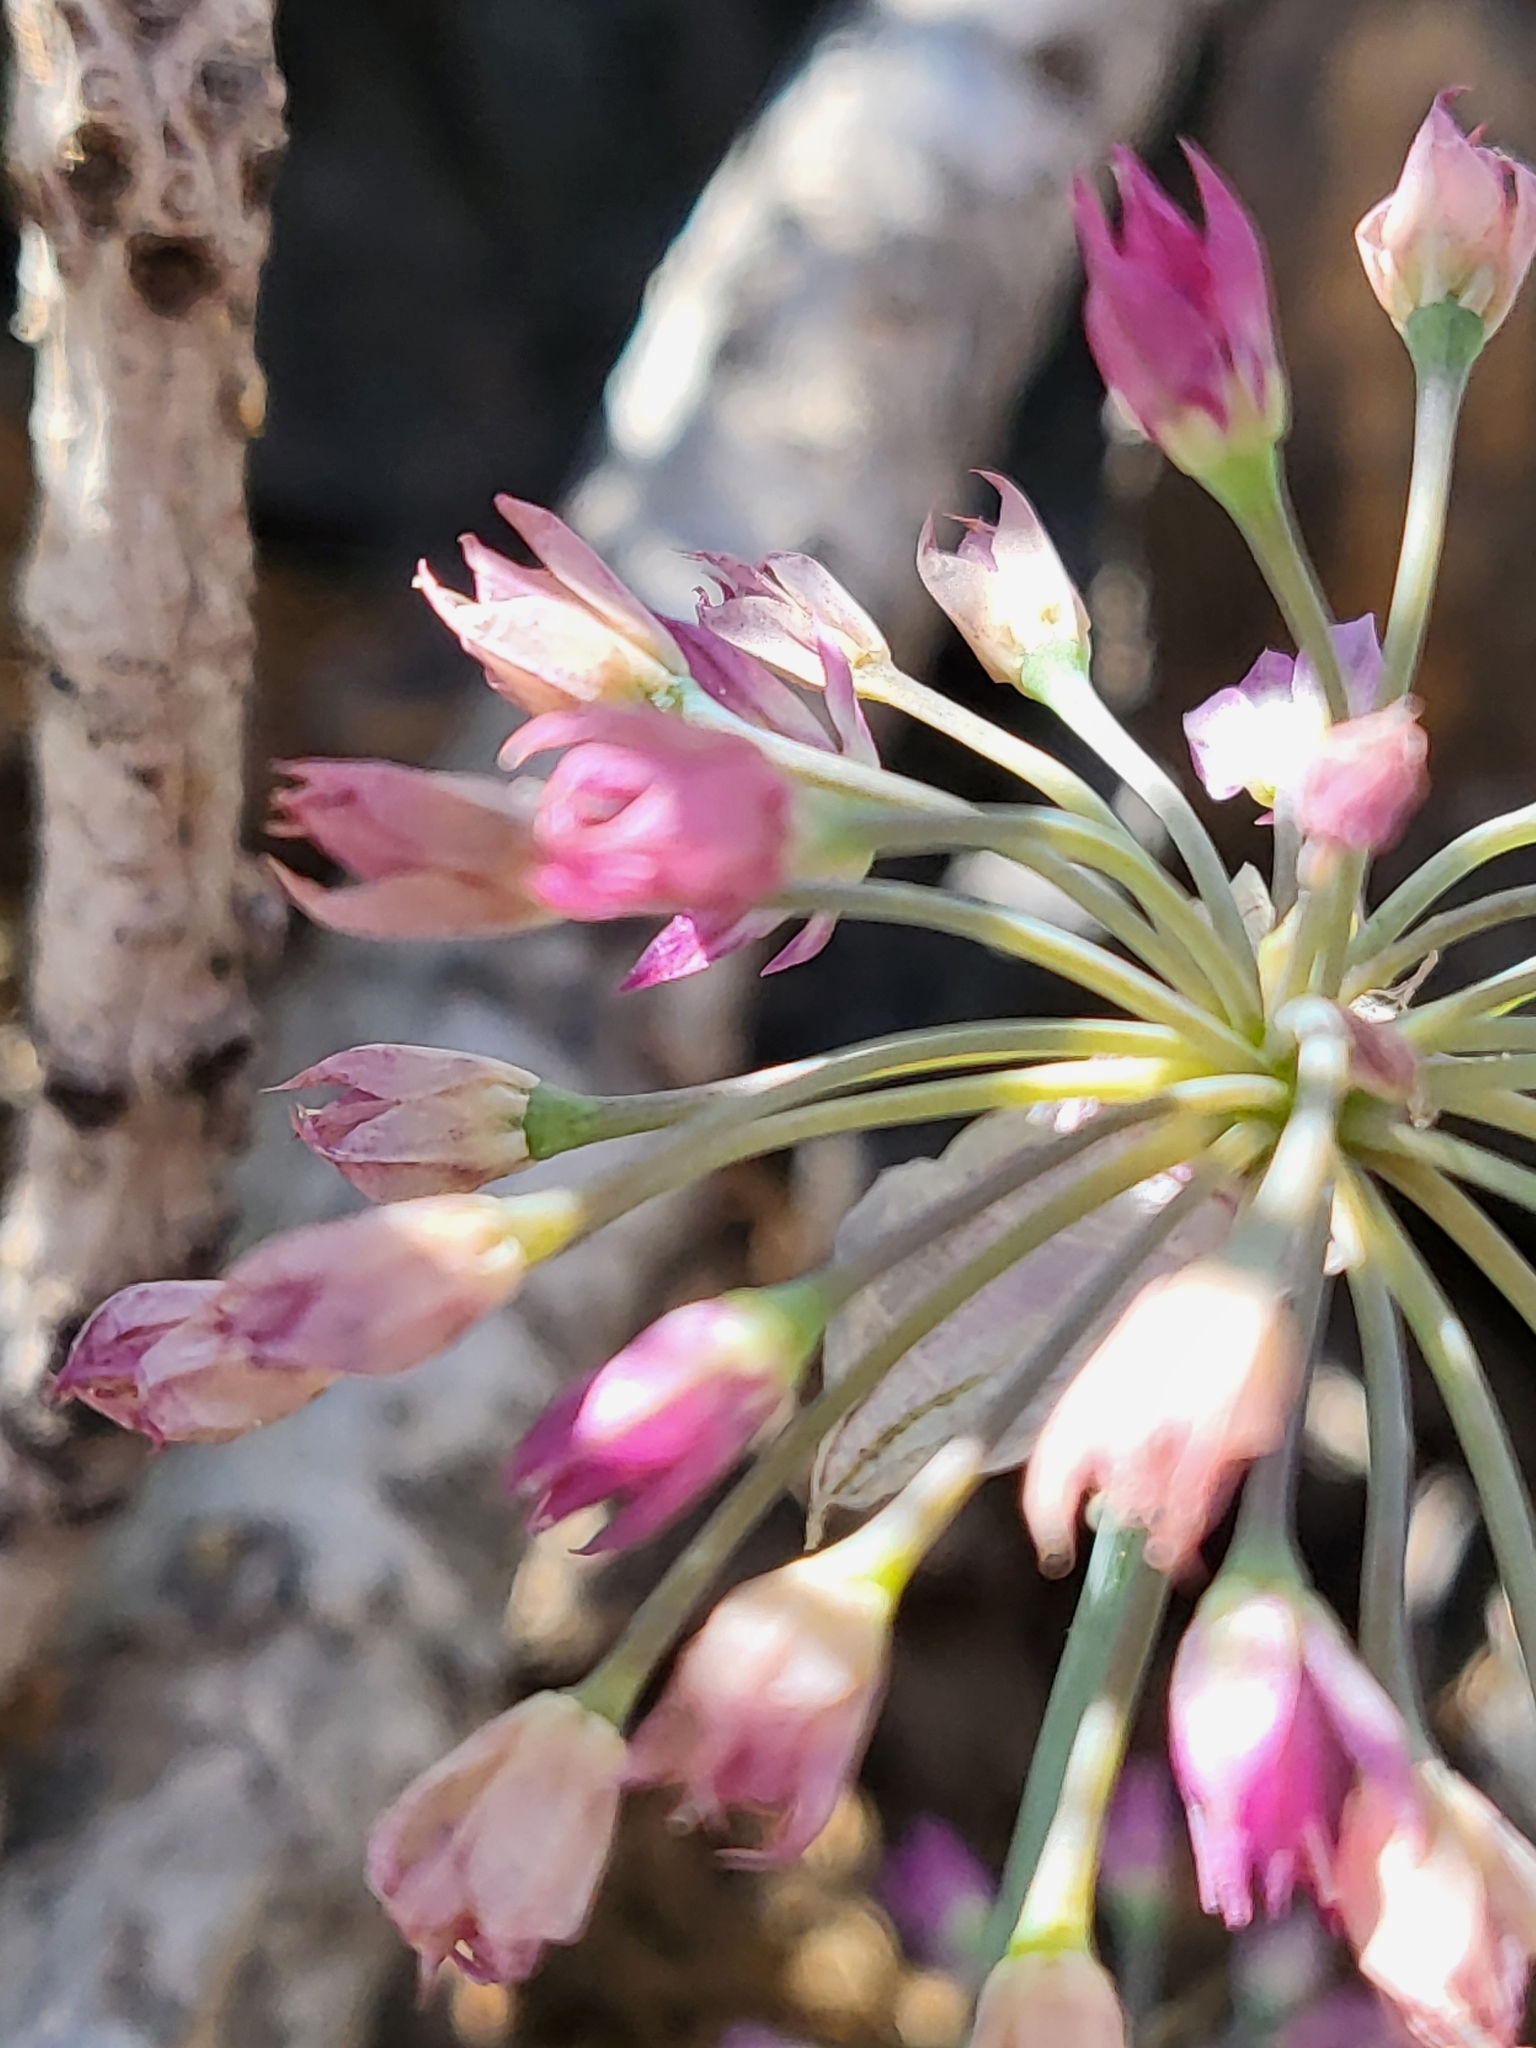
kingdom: Plantae
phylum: Tracheophyta
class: Liliopsida
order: Asparagales
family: Amaryllidaceae
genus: Allium
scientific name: Allium campanulatum
